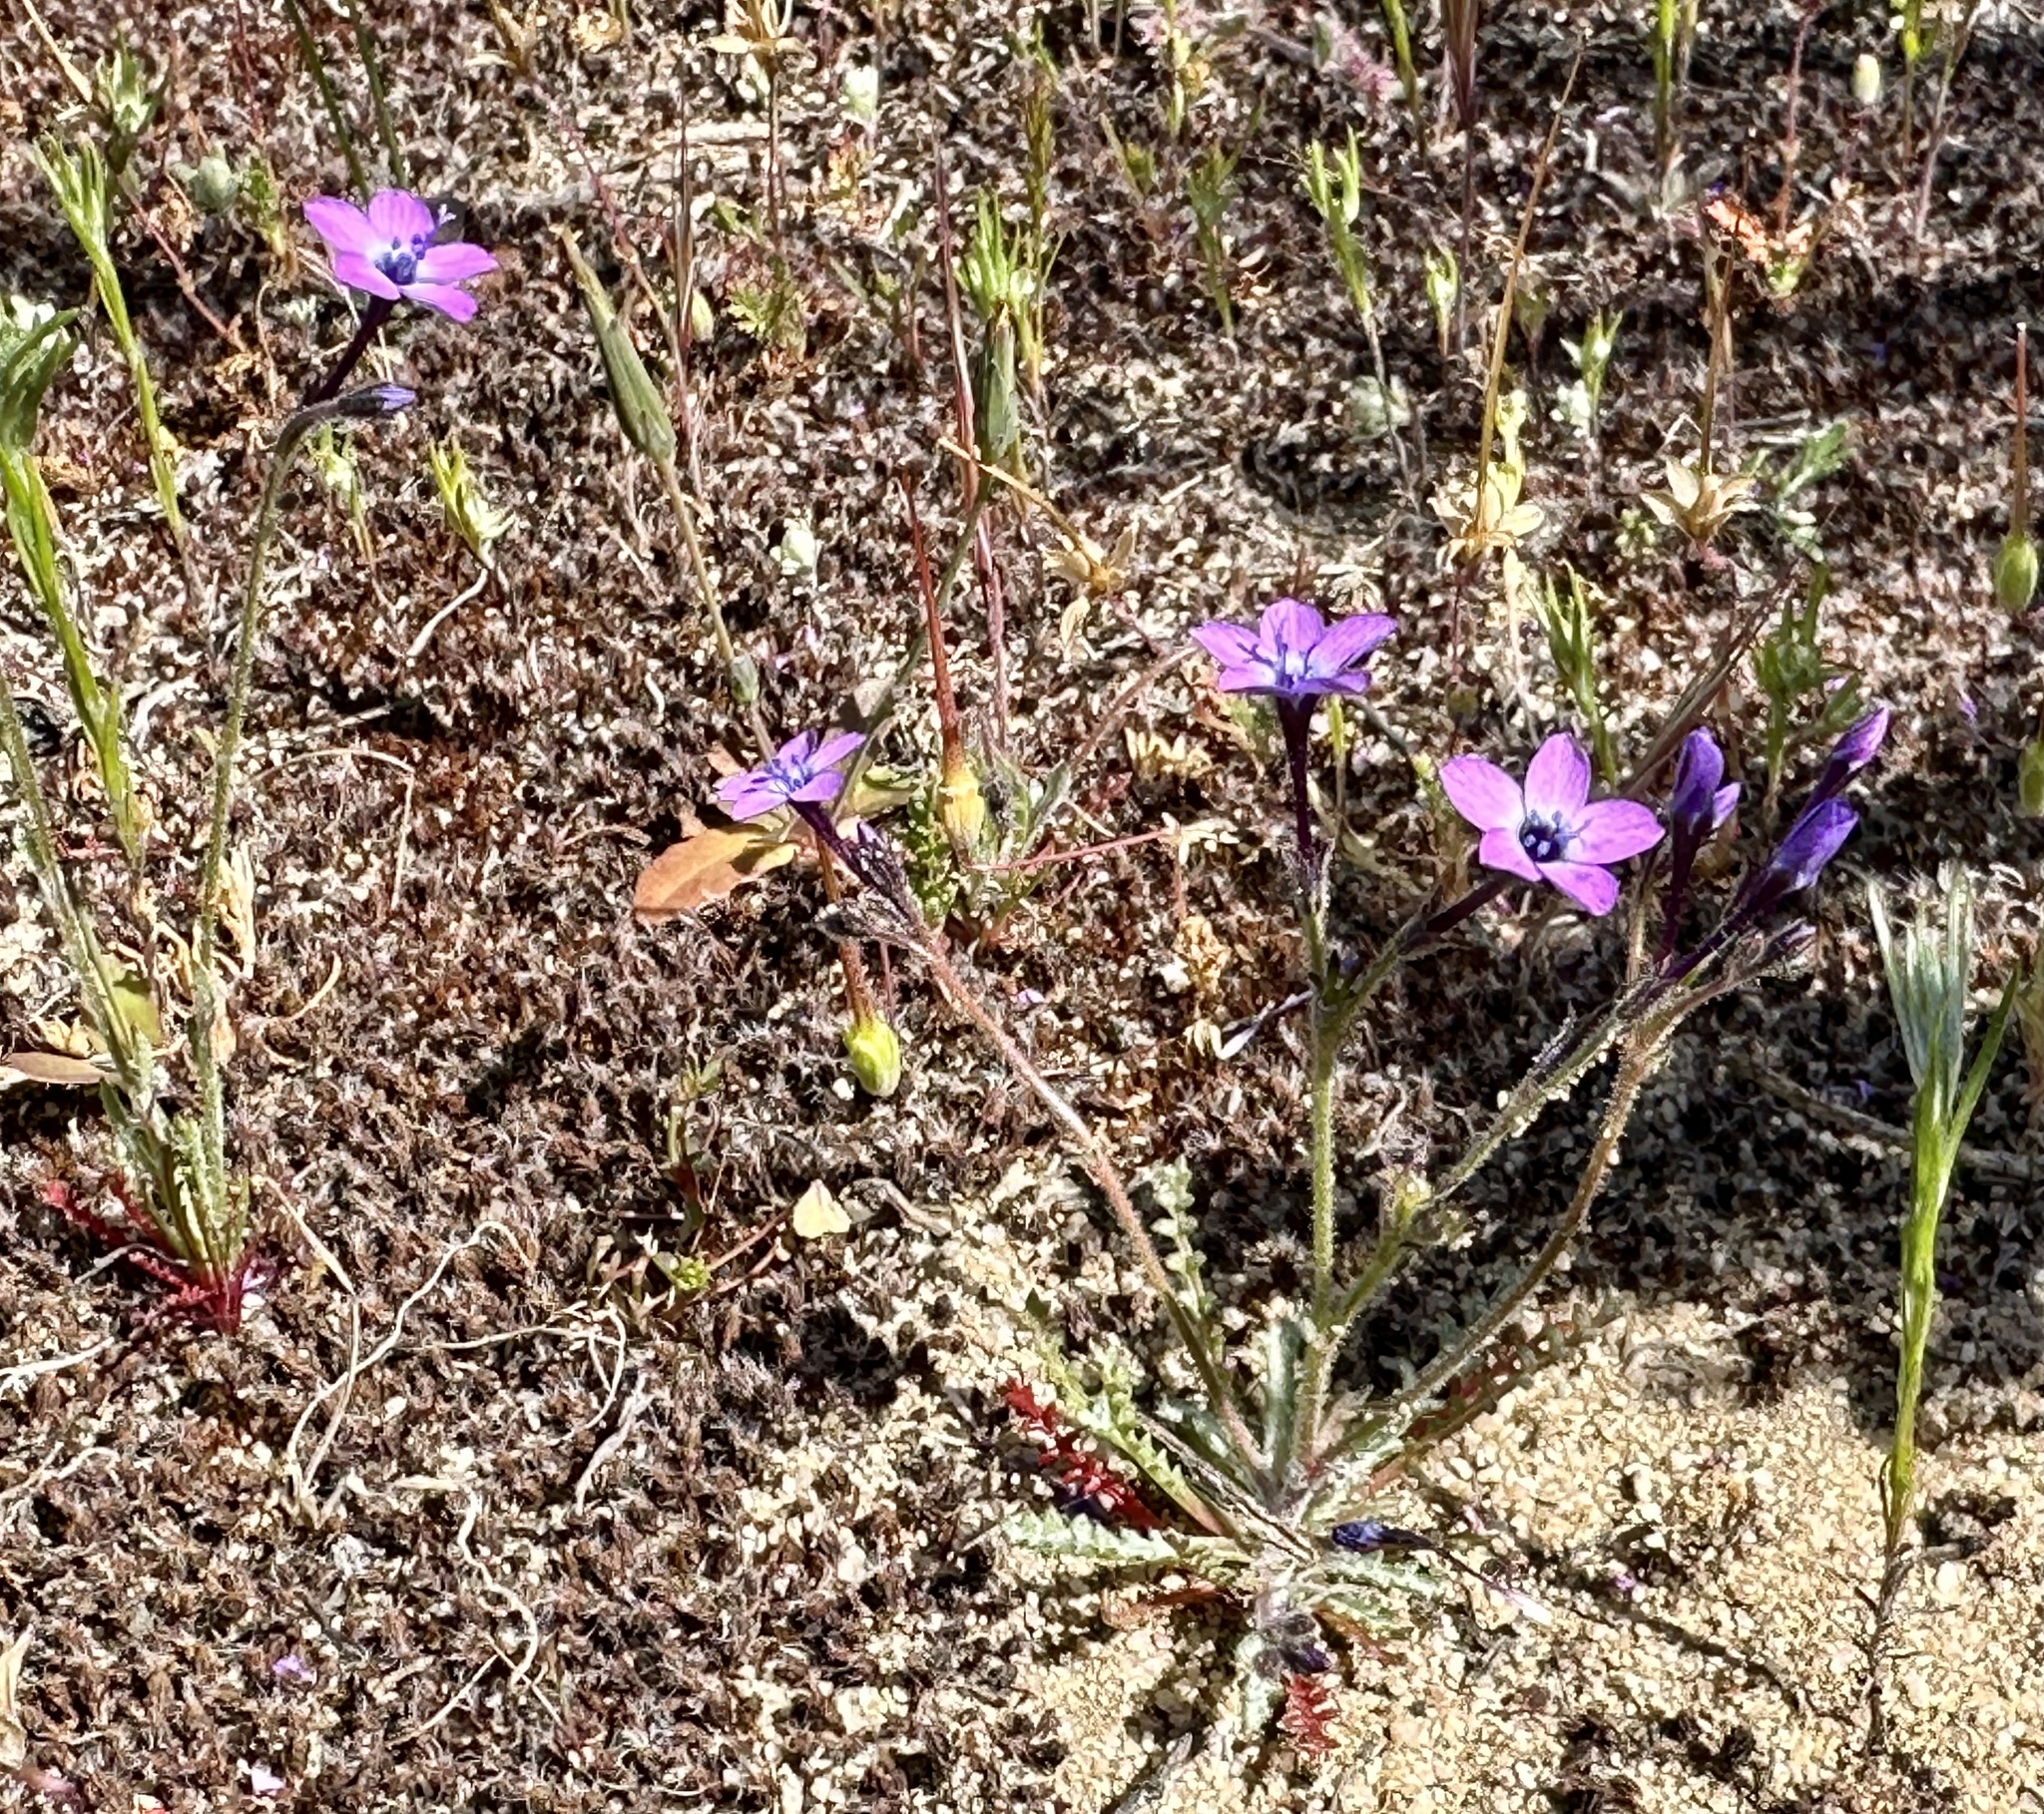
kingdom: Plantae
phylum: Tracheophyta
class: Magnoliopsida
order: Ericales
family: Polemoniaceae
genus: Gilia
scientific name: Gilia tenuiflora
